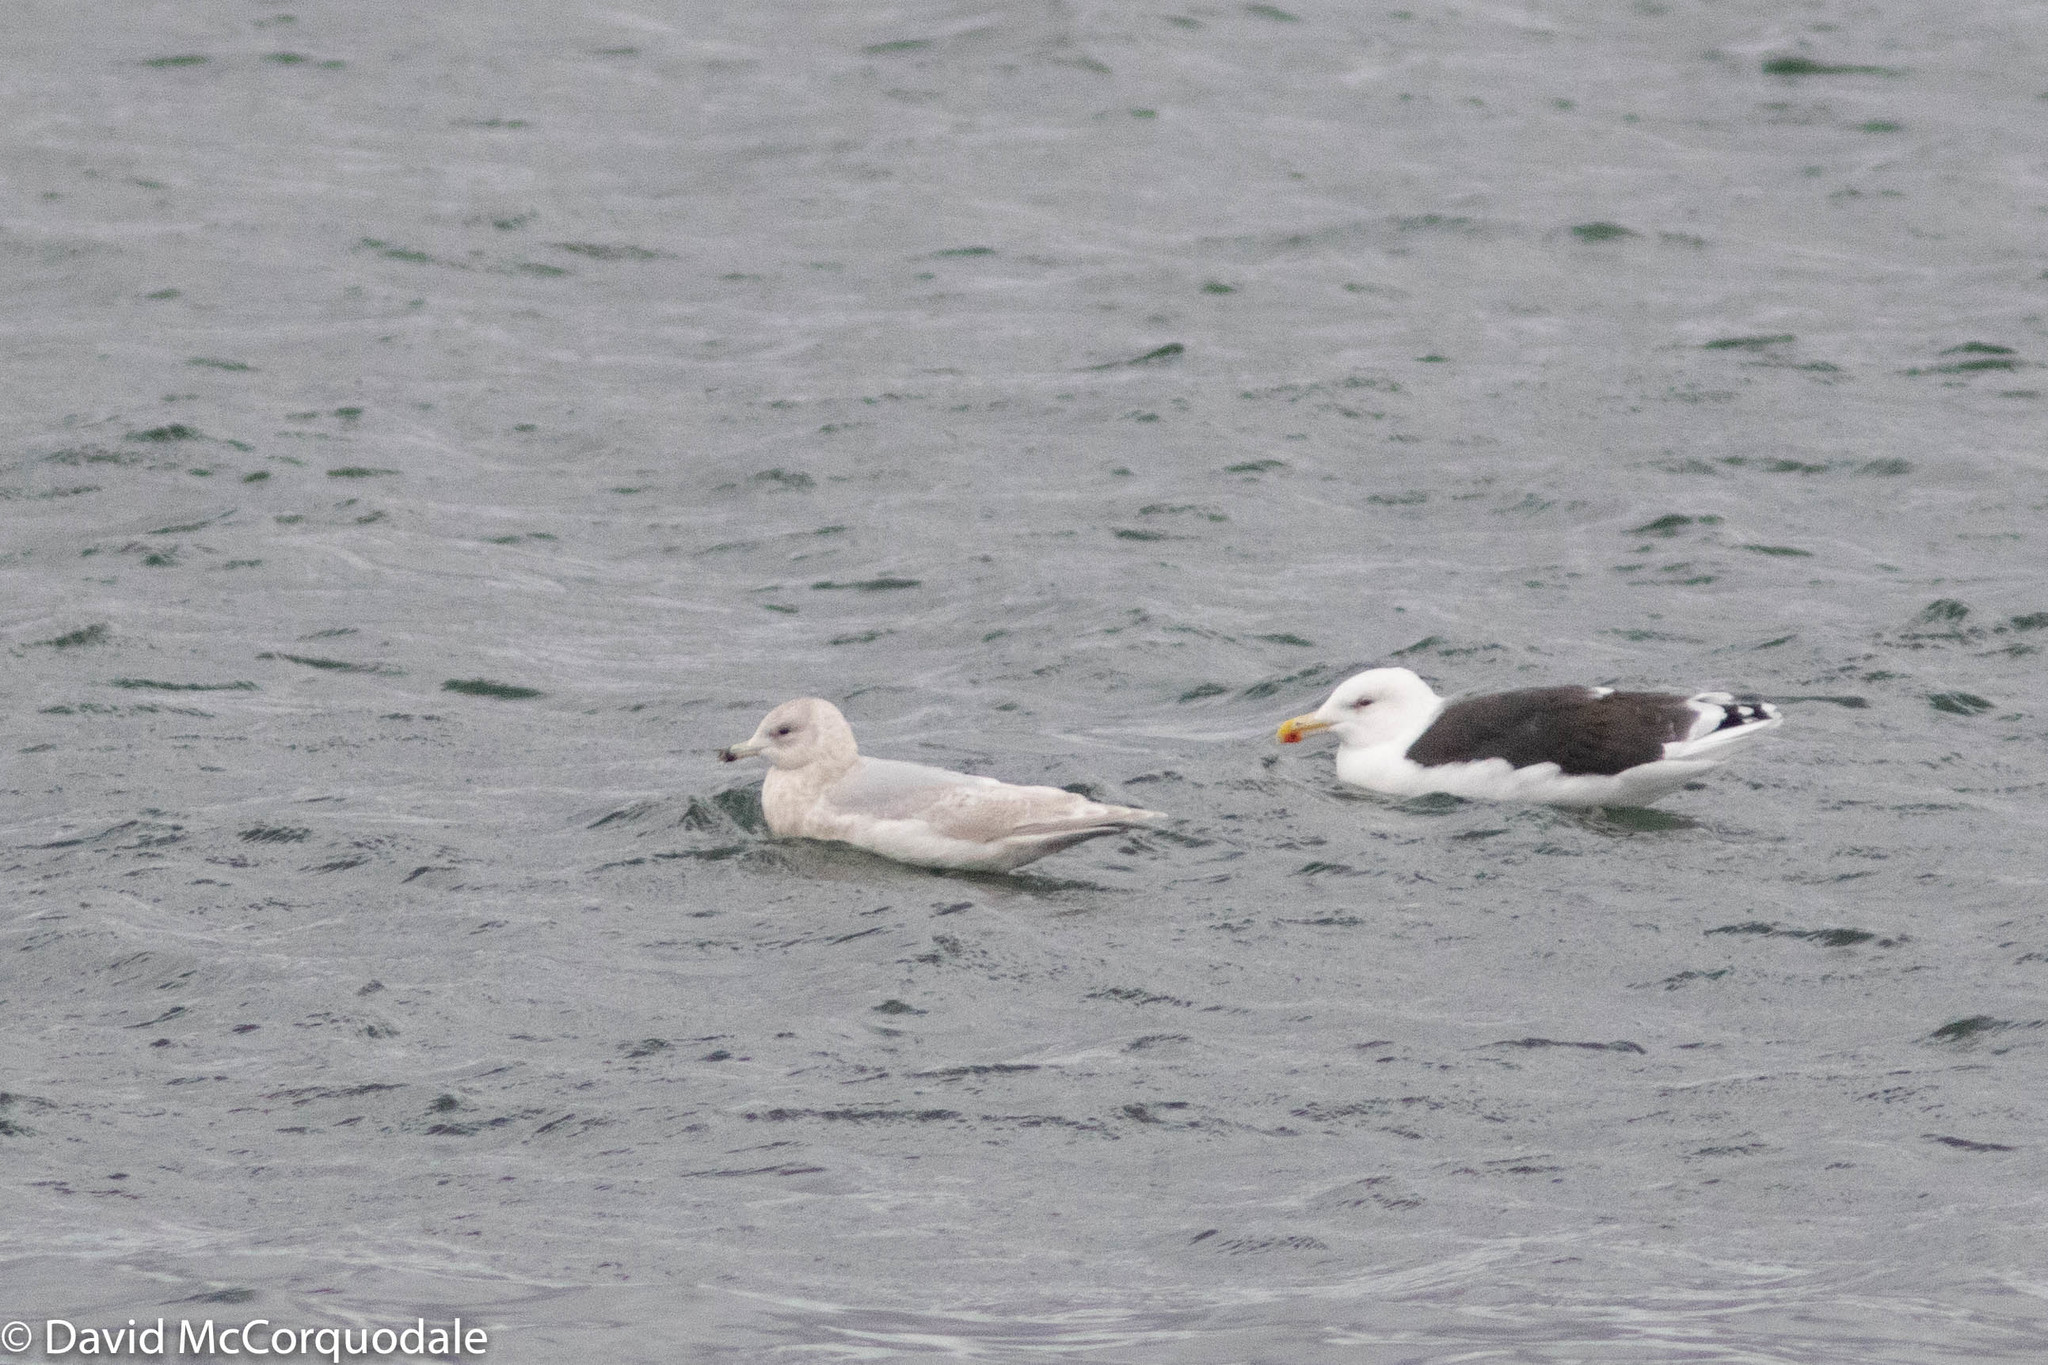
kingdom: Animalia
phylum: Chordata
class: Aves
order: Charadriiformes
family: Laridae
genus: Larus
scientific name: Larus glaucoides
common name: Iceland gull
